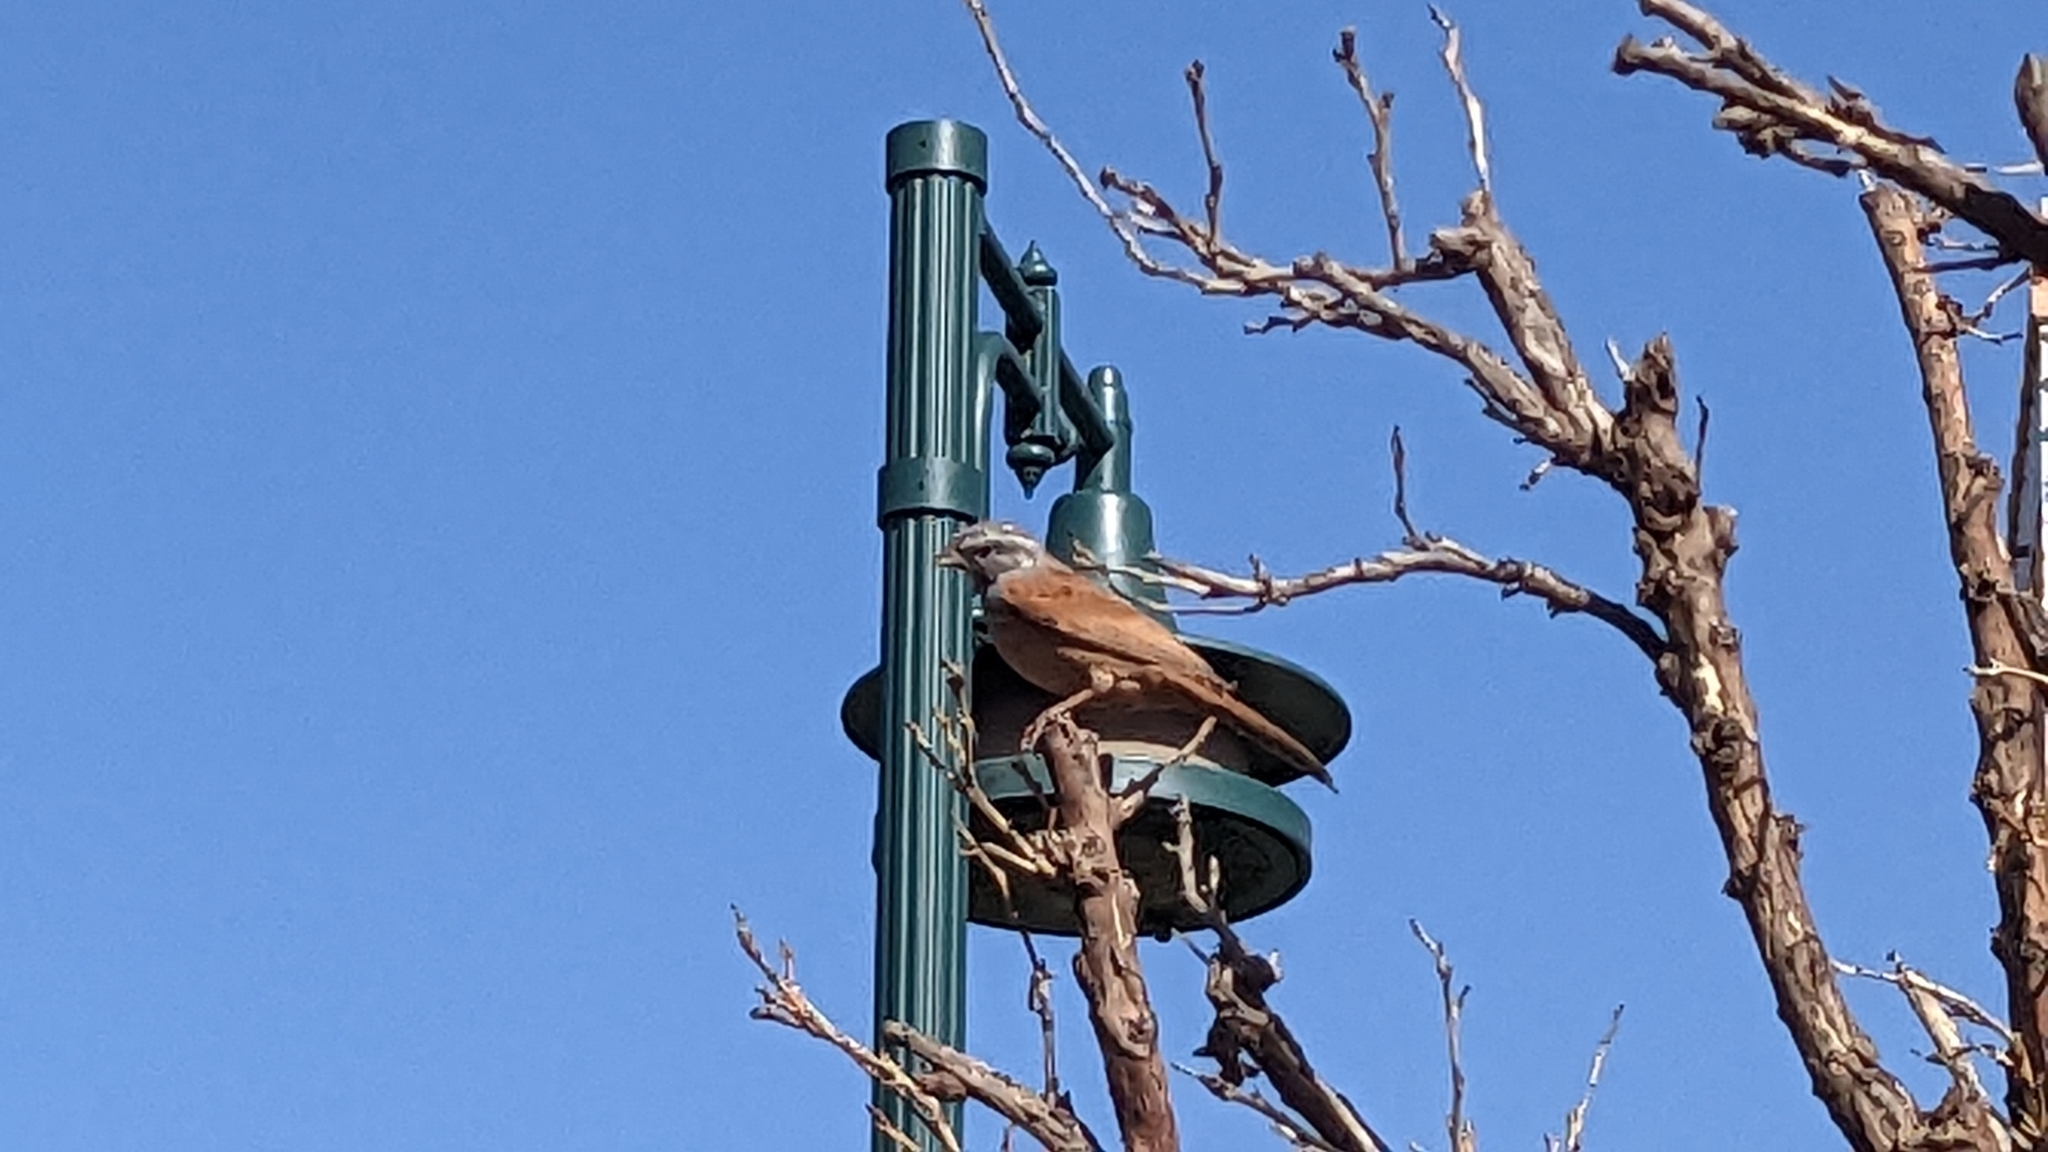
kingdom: Animalia
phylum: Chordata
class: Aves
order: Passeriformes
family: Emberizidae
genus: Emberiza
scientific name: Emberiza sahari
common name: House bunting
